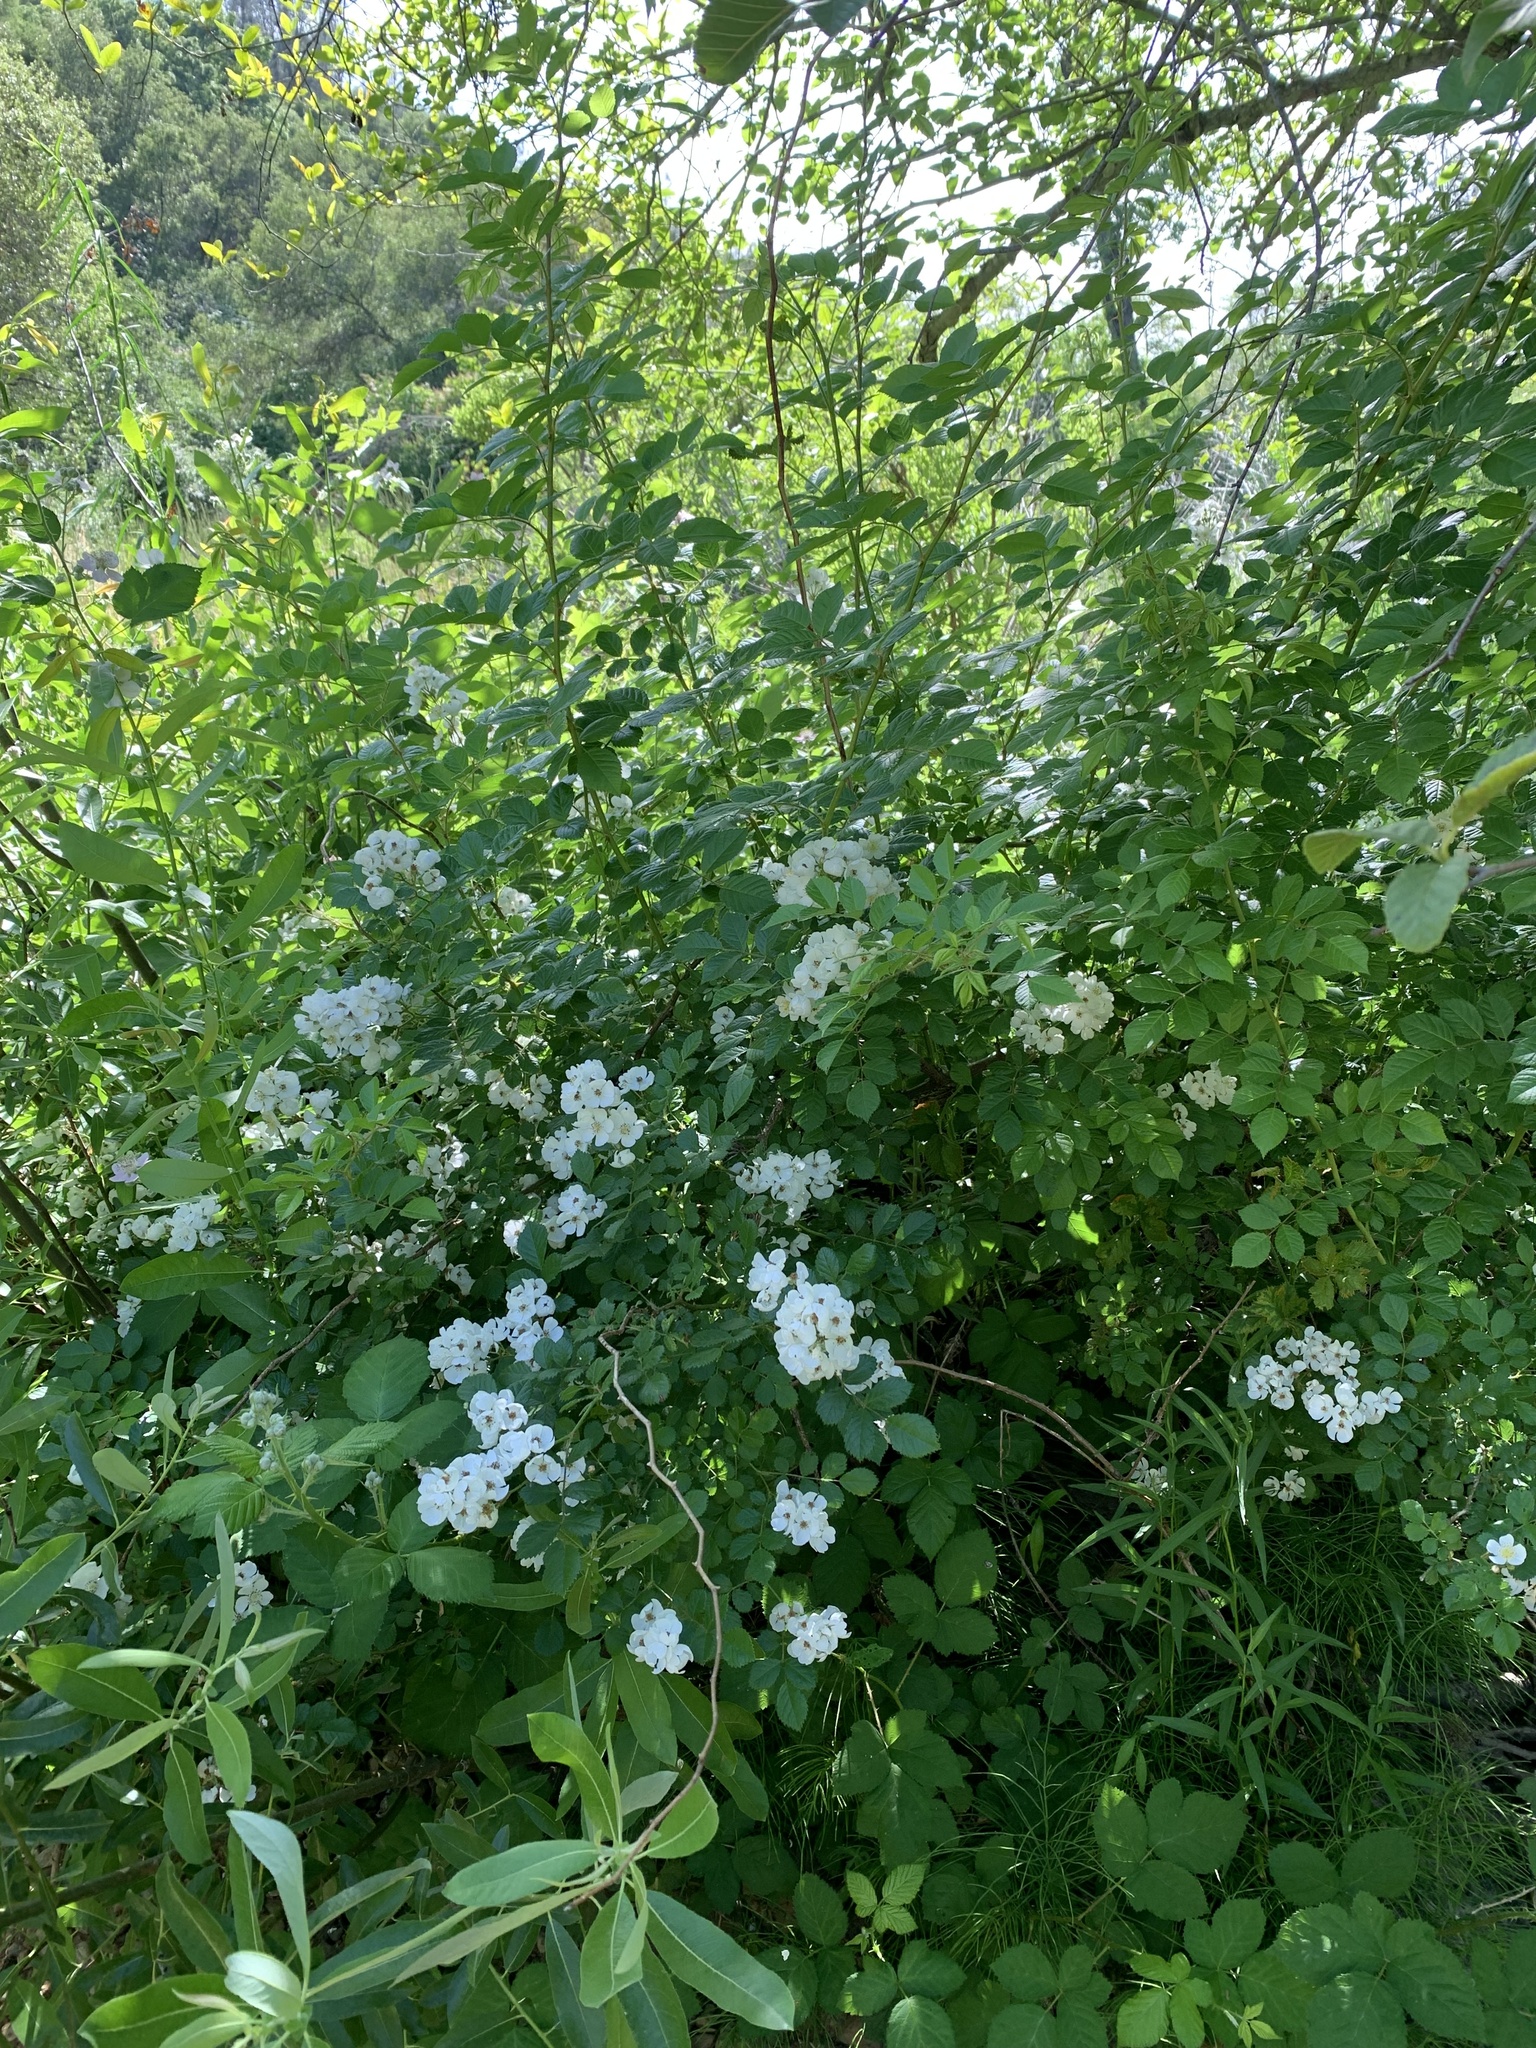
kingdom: Plantae
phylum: Tracheophyta
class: Magnoliopsida
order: Rosales
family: Rosaceae
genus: Rosa
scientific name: Rosa multiflora
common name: Multiflora rose
